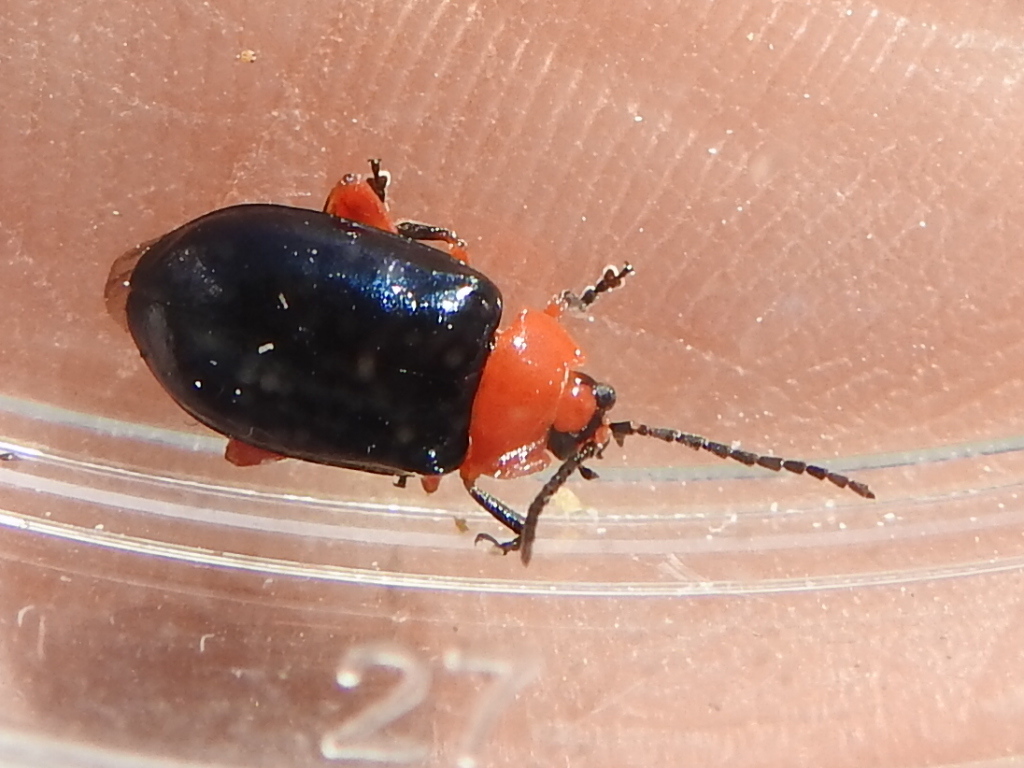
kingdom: Animalia
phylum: Arthropoda
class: Insecta
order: Coleoptera
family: Chrysomelidae
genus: Asphaera
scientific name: Asphaera lustrans
